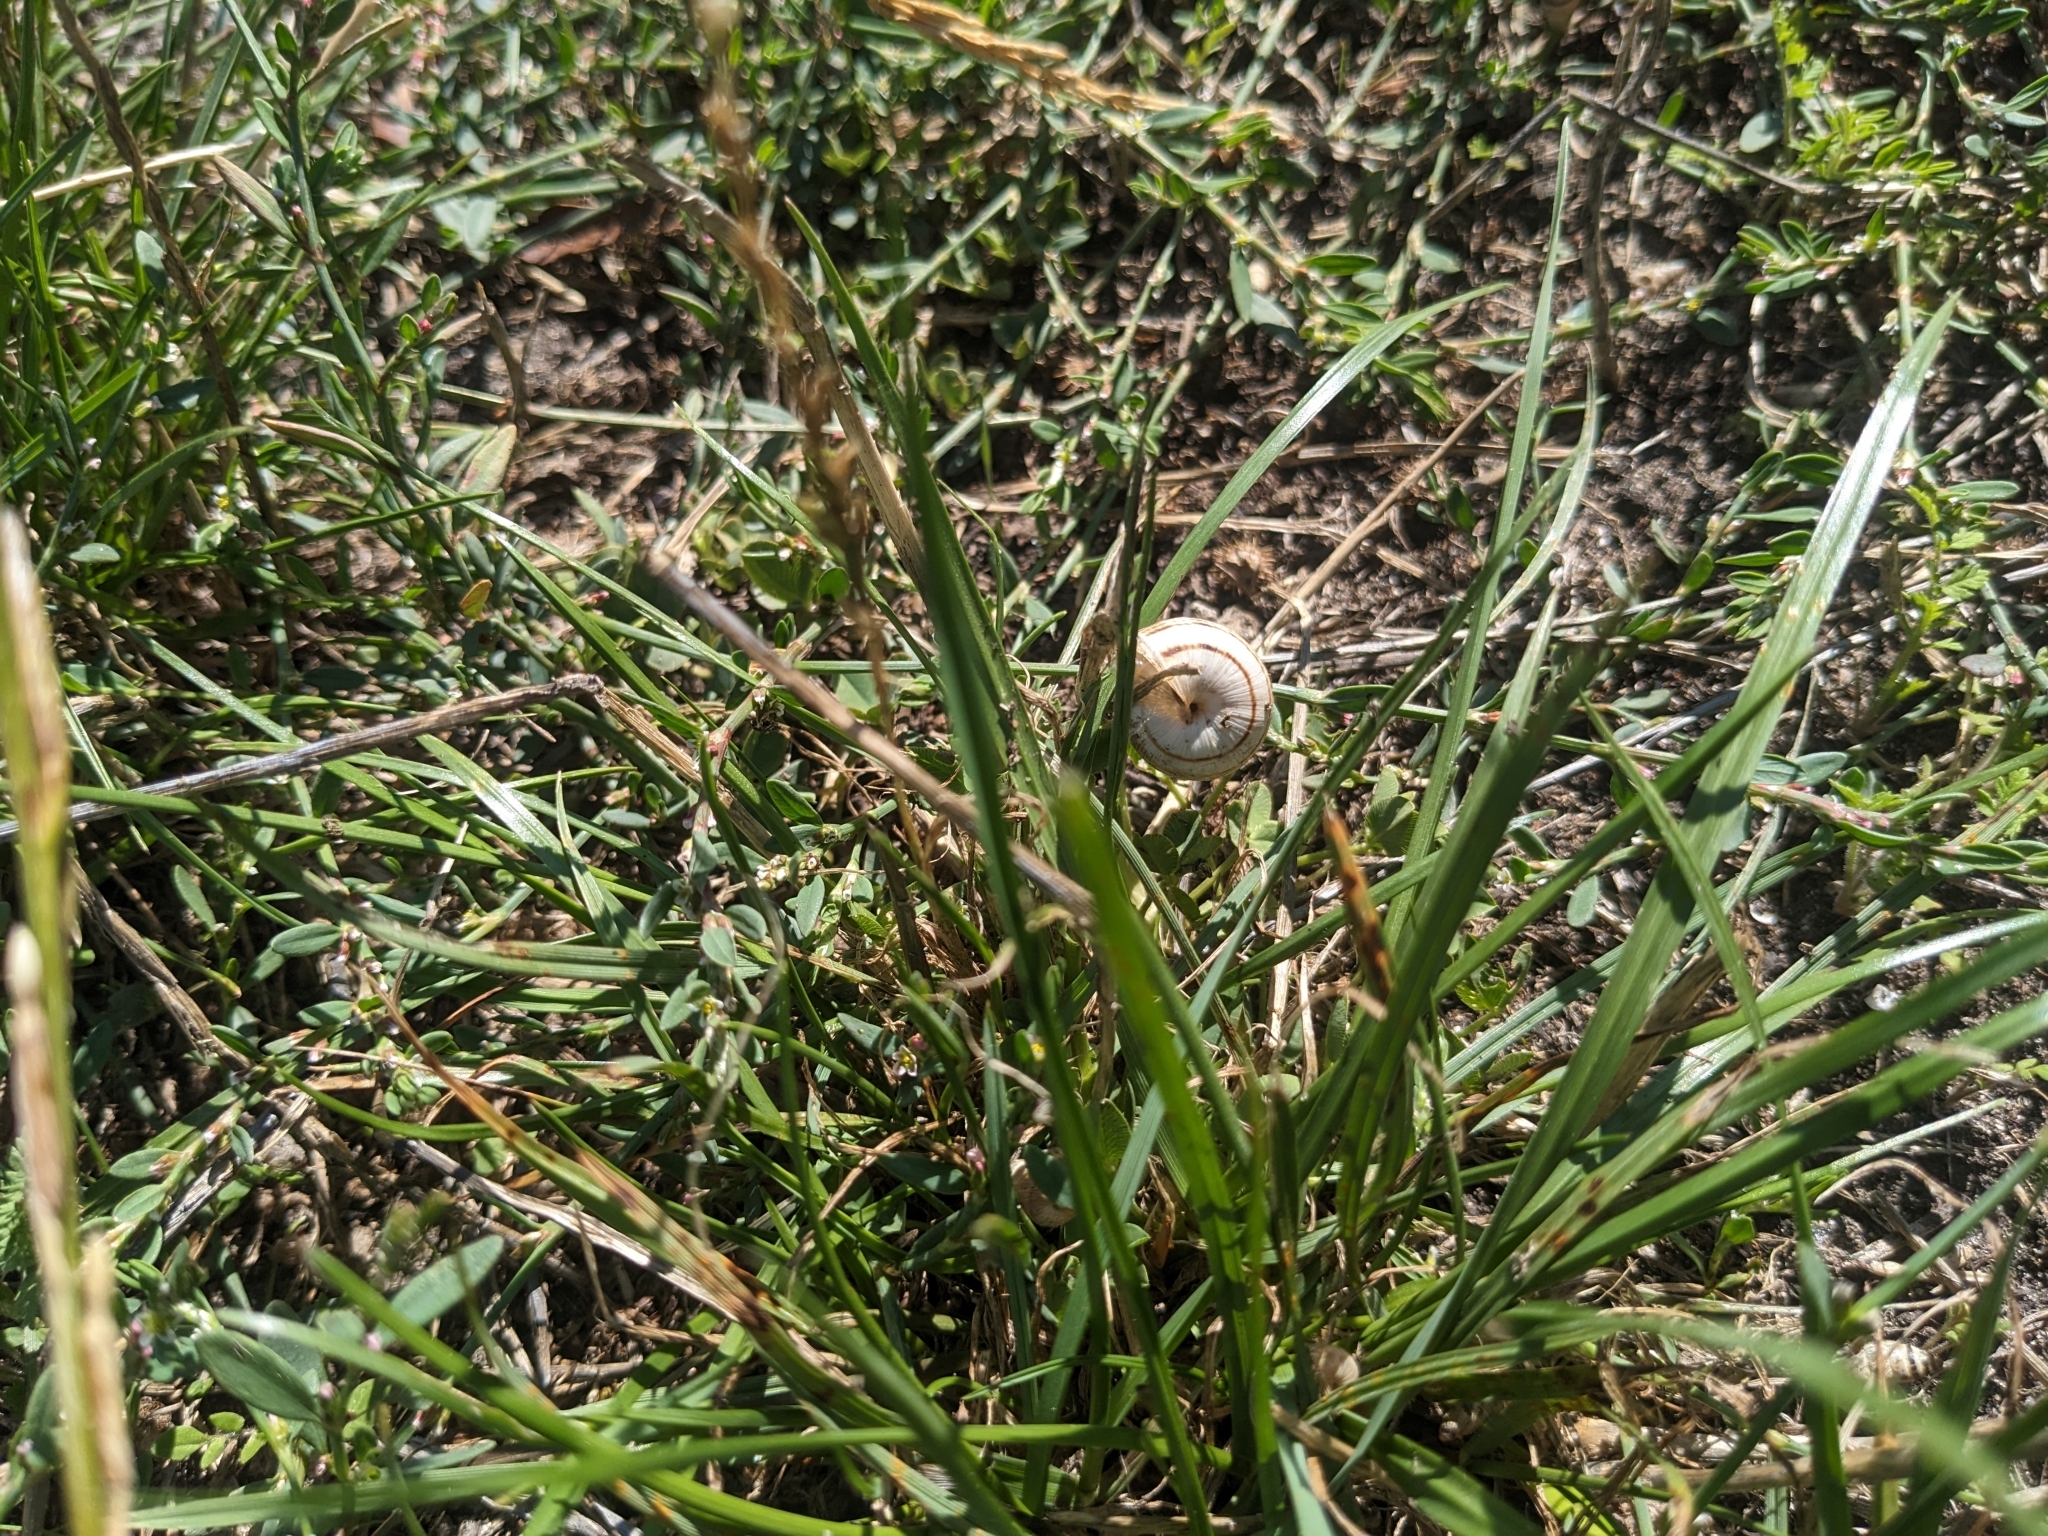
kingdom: Animalia
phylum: Mollusca
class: Gastropoda
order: Stylommatophora
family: Helicidae
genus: Theba
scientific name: Theba pisana
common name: White snail
